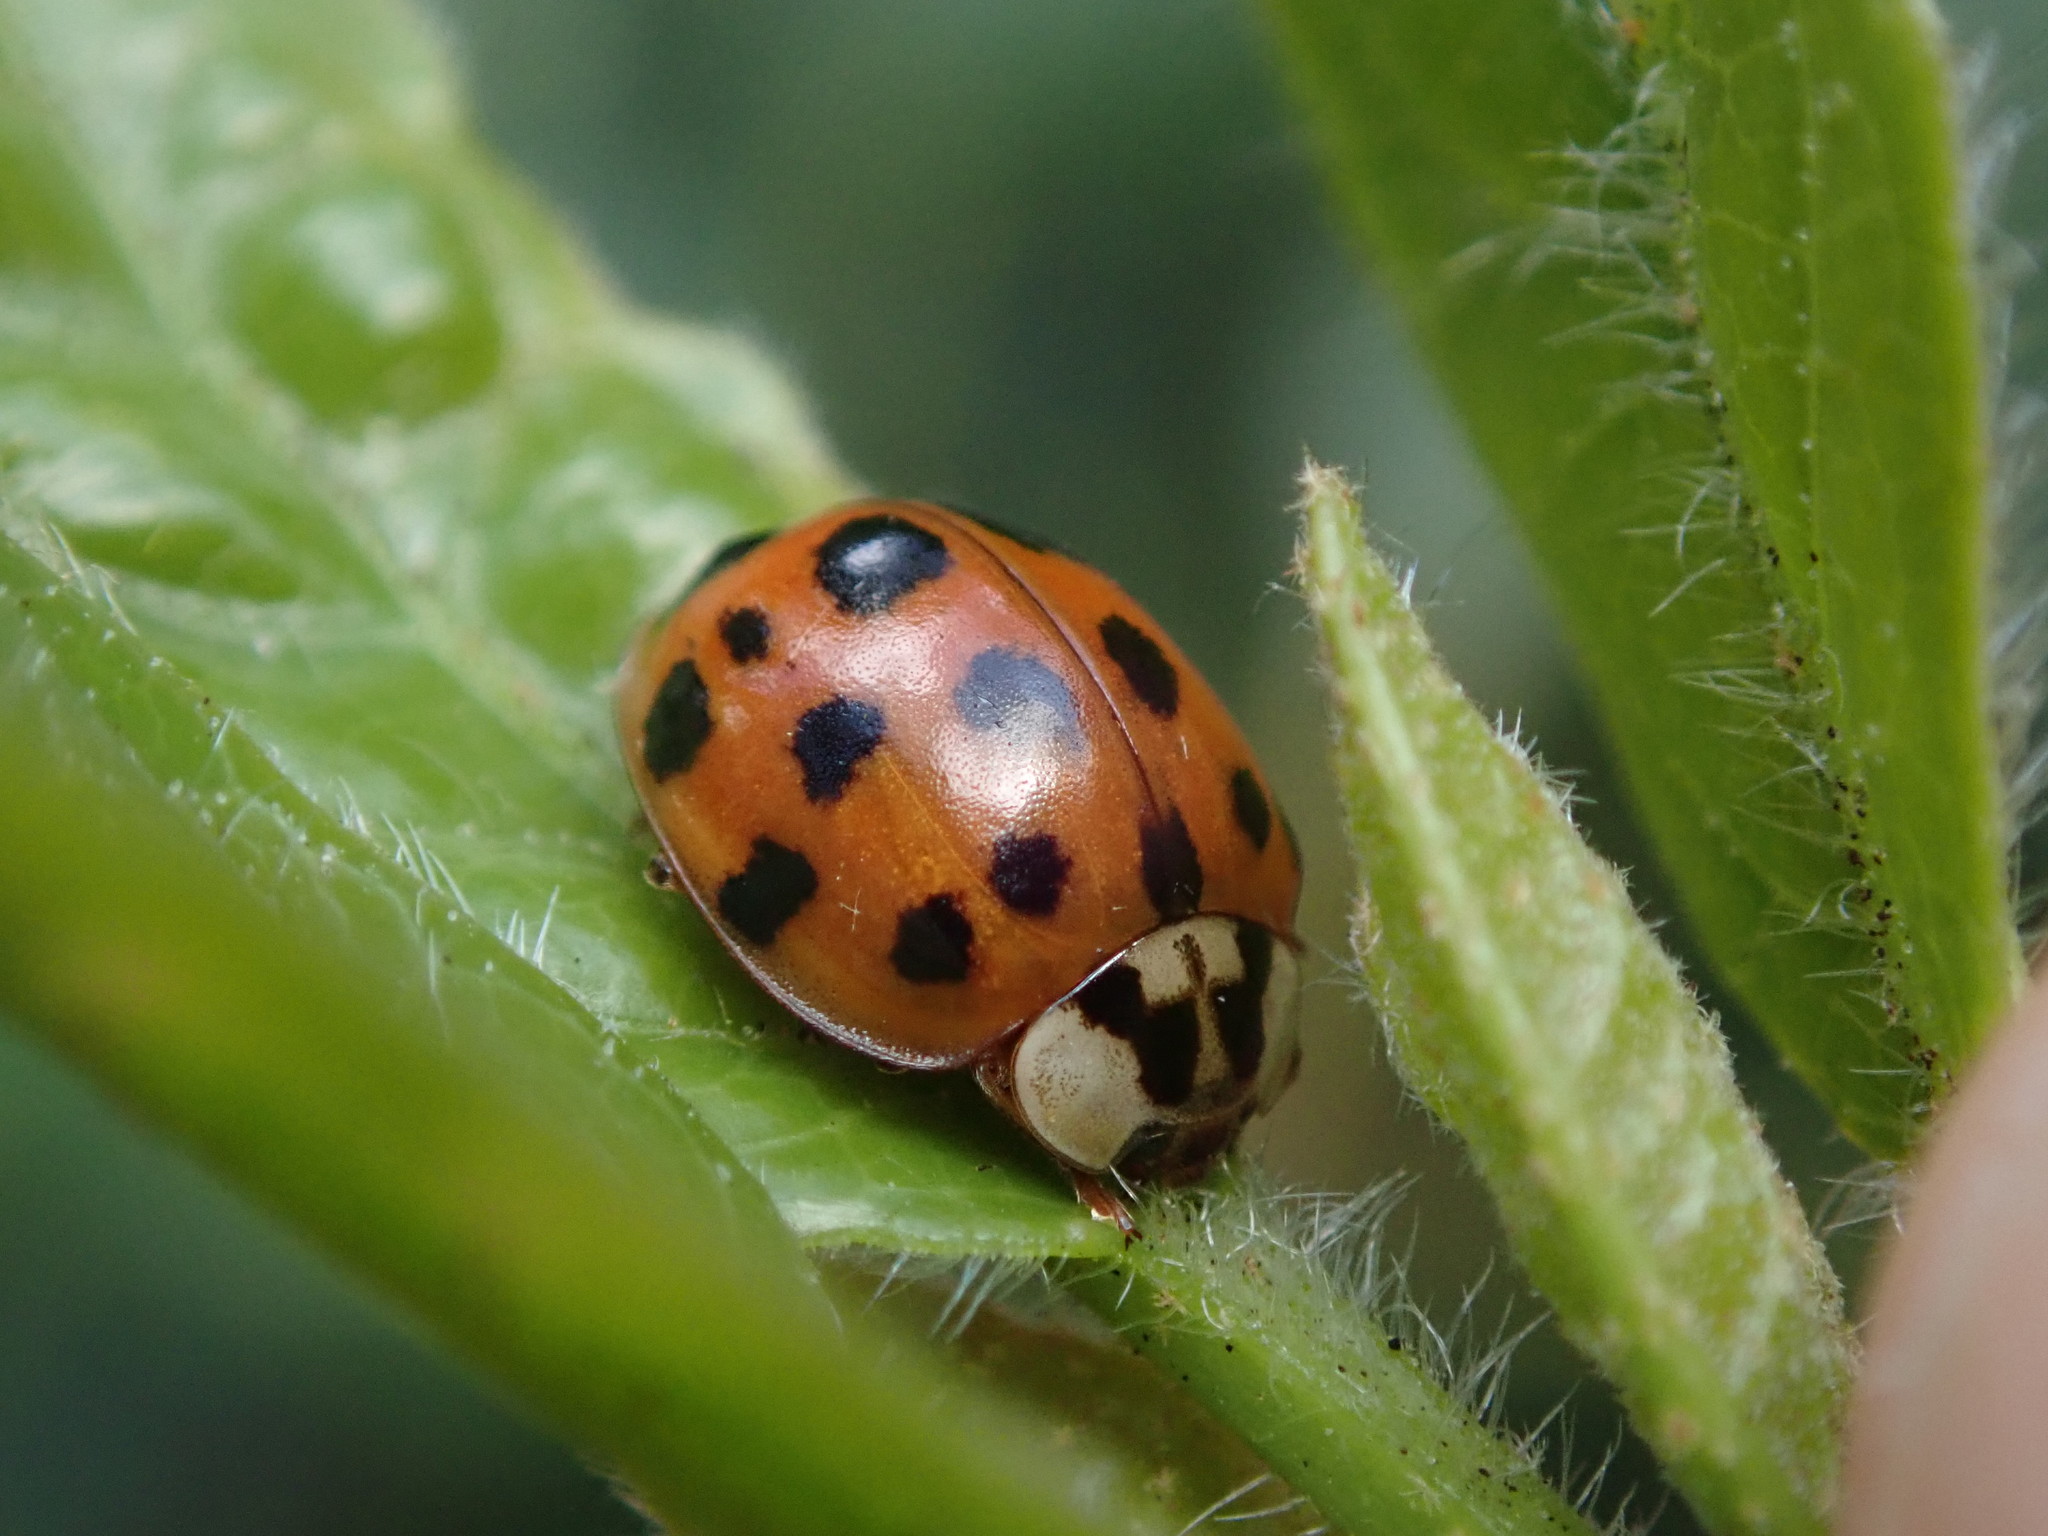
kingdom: Animalia
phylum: Arthropoda
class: Insecta
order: Coleoptera
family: Coccinellidae
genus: Harmonia
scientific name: Harmonia axyridis
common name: Harlequin ladybird
